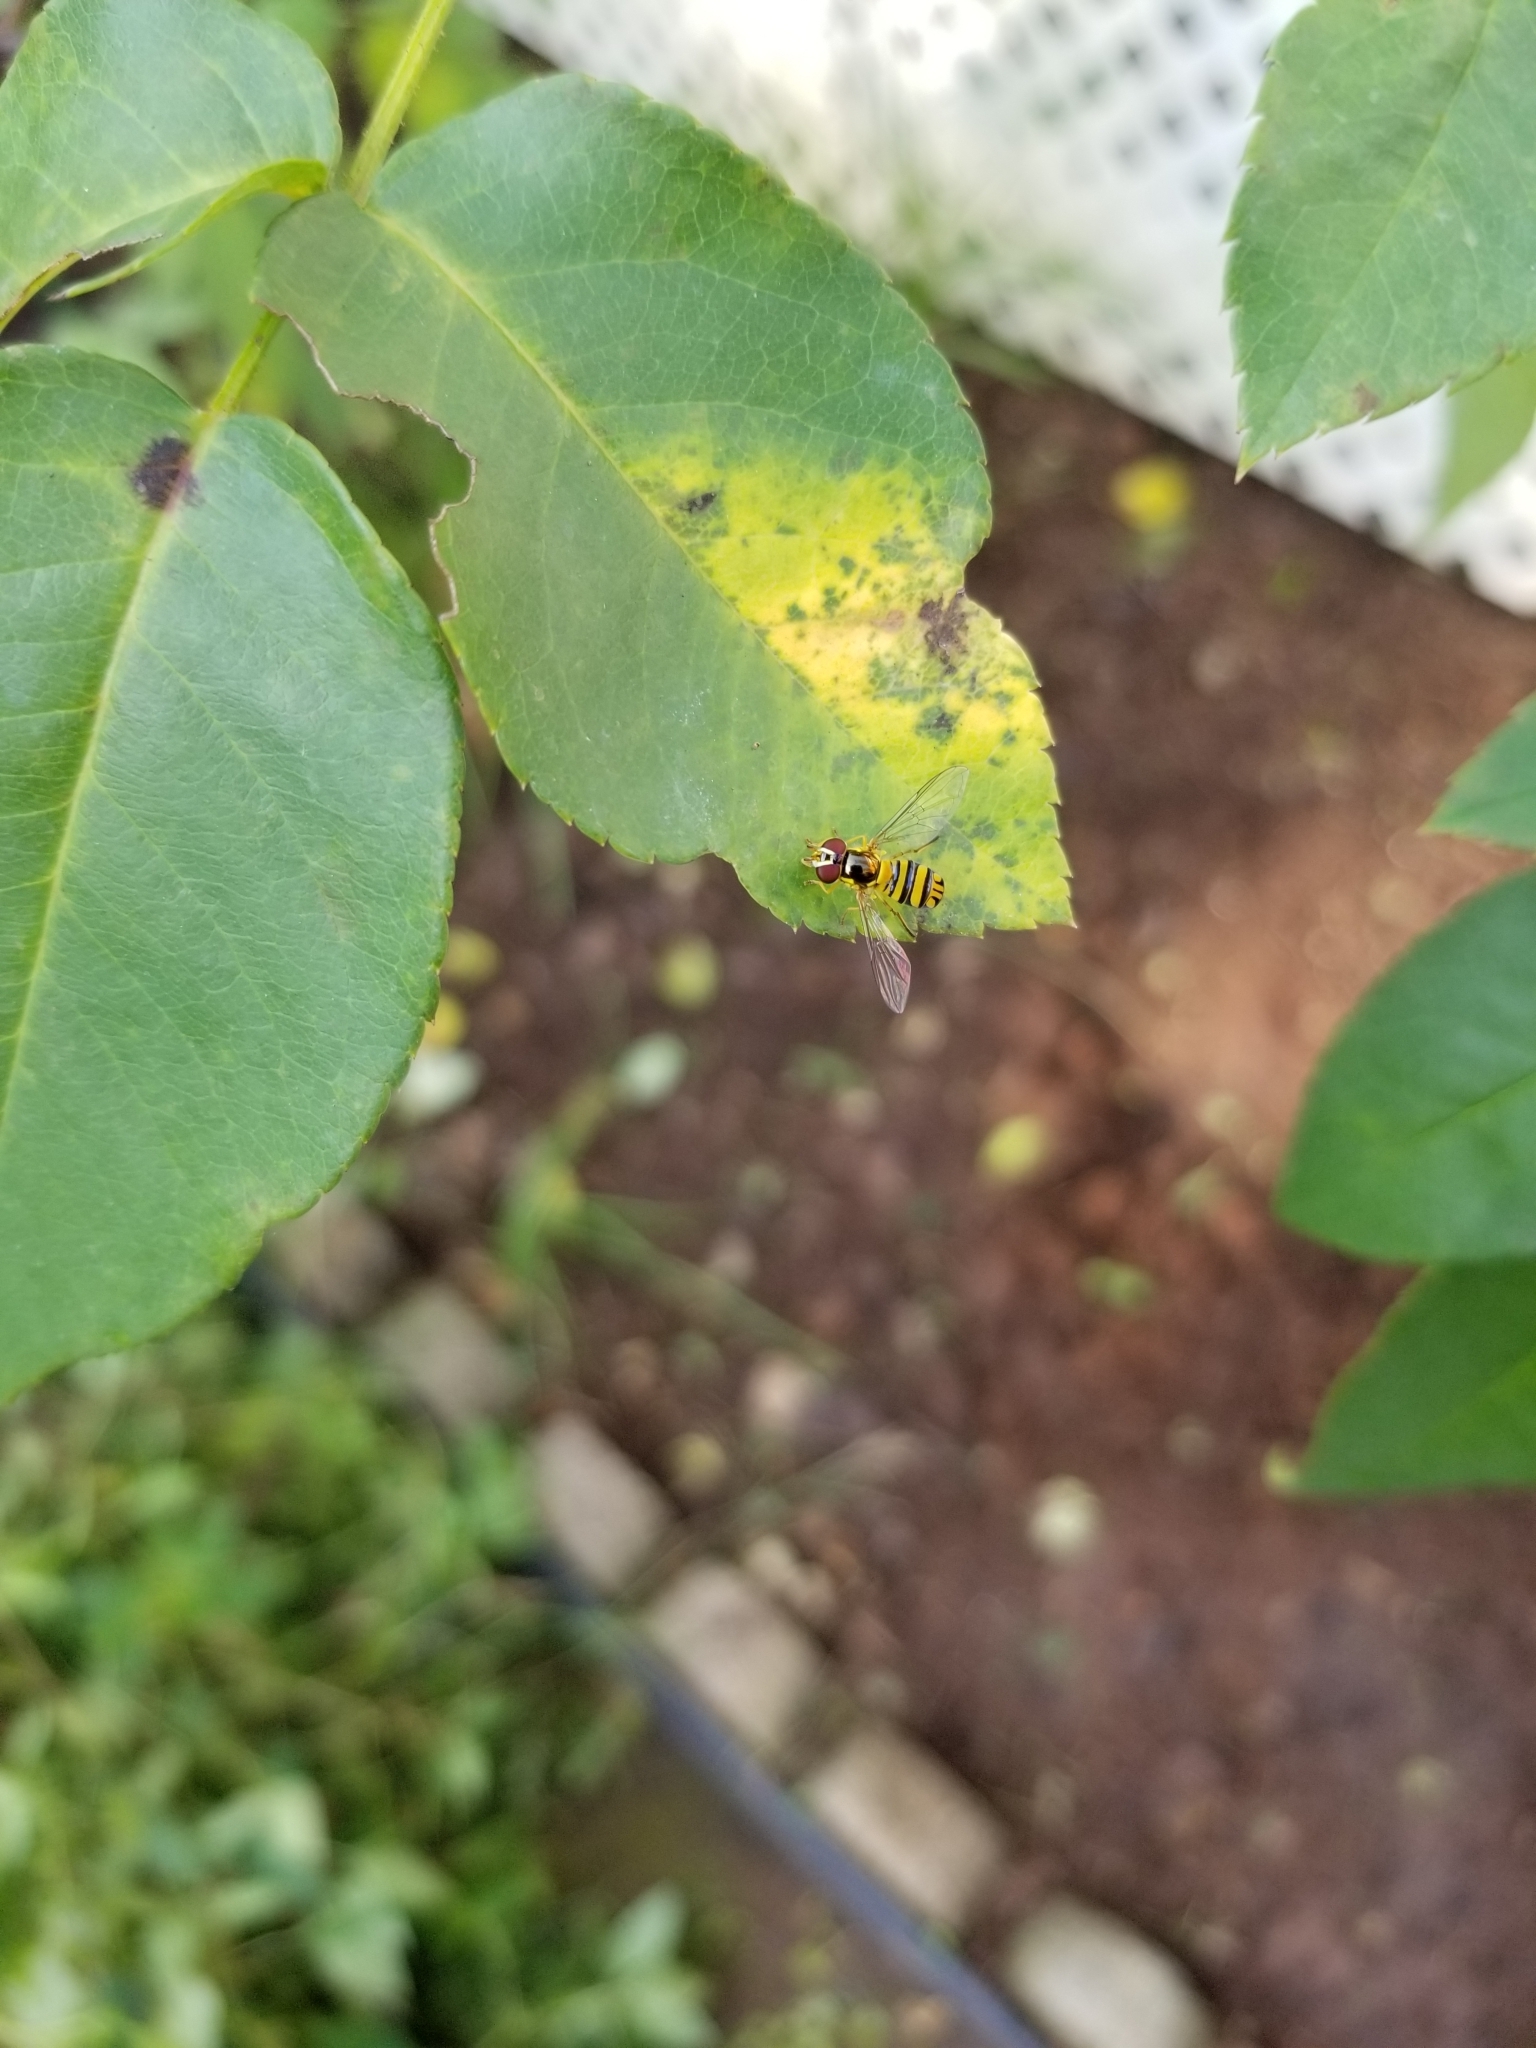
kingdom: Animalia
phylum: Arthropoda
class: Insecta
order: Diptera
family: Syrphidae
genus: Allograpta
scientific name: Allograpta obliqua
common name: Common oblique syrphid
